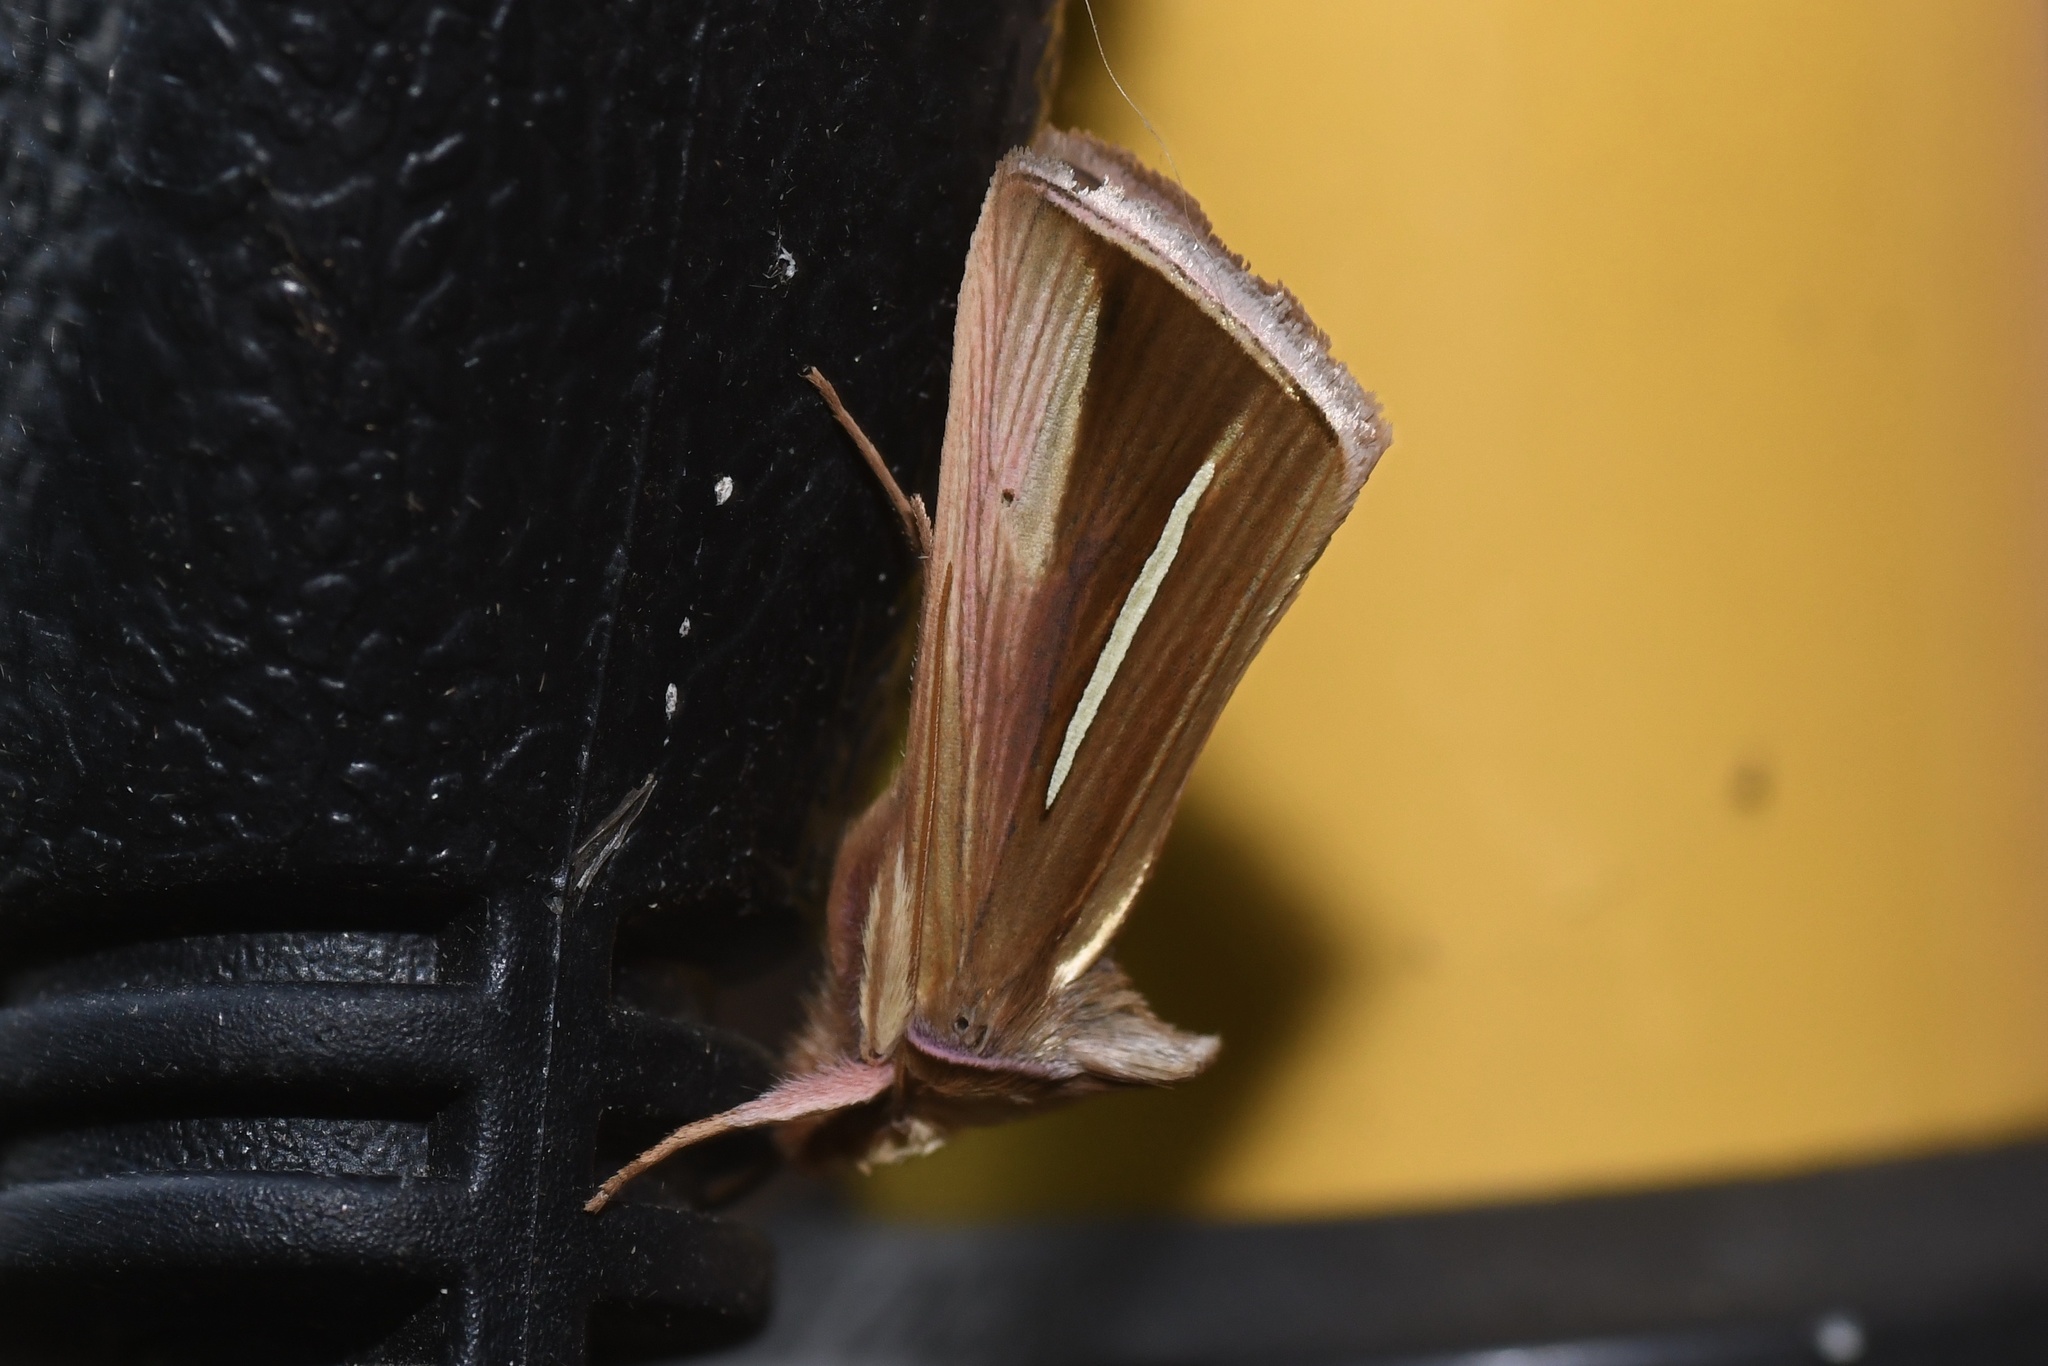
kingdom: Animalia
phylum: Arthropoda
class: Insecta
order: Lepidoptera
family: Noctuidae
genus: Plusia
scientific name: Plusia venusta
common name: White-streaked looper moth
